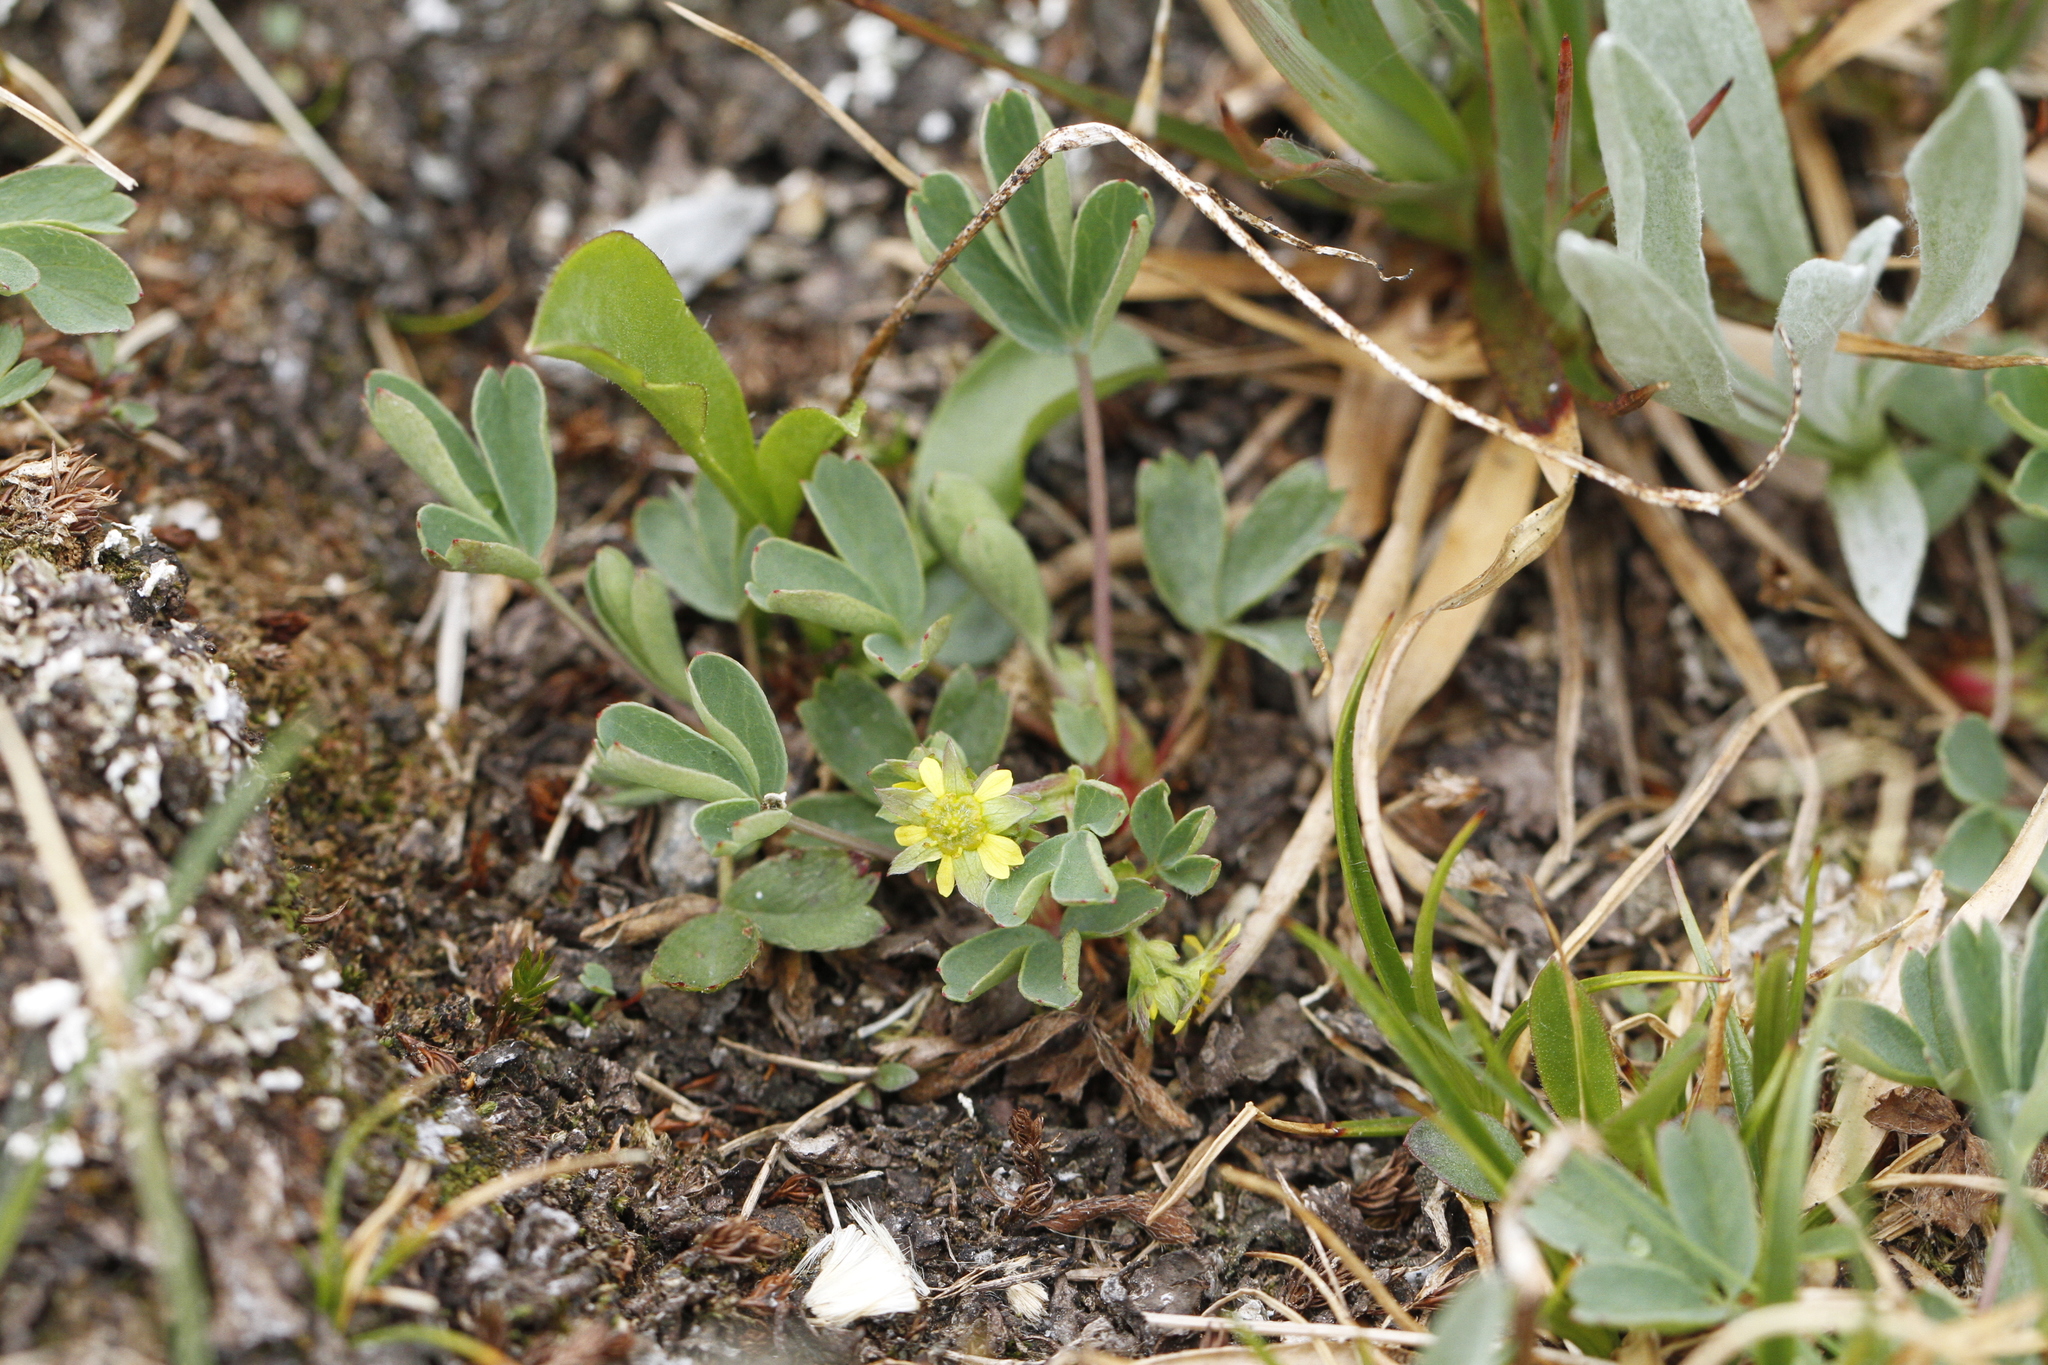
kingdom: Plantae
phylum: Tracheophyta
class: Magnoliopsida
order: Rosales
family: Rosaceae
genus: Sibbaldia
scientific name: Sibbaldia procumbens
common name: Creeping sibbaldia
